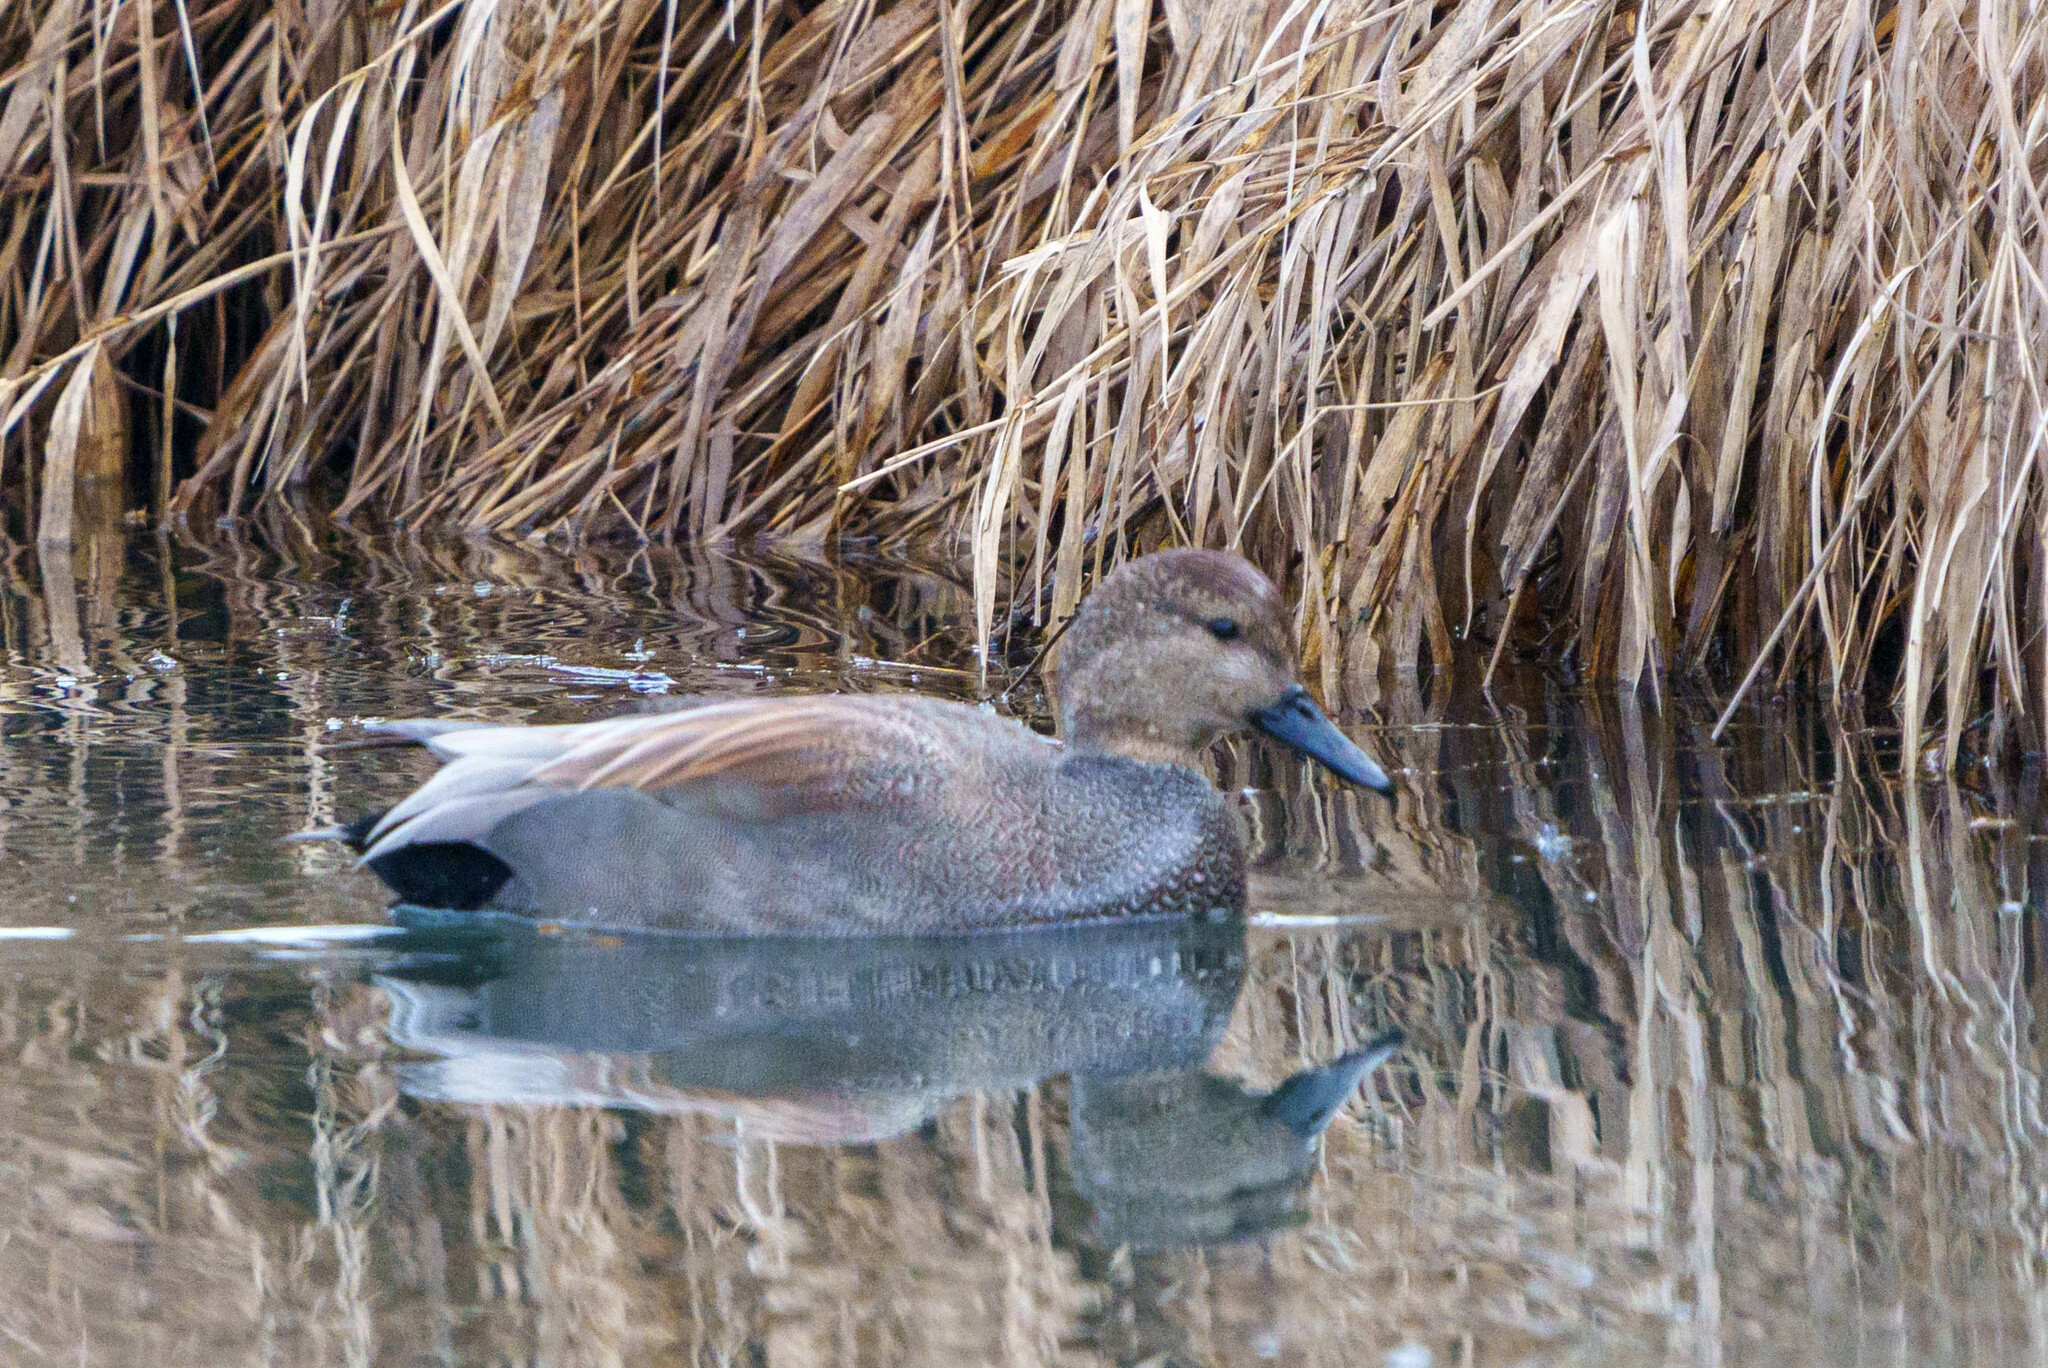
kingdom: Animalia
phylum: Chordata
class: Aves
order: Anseriformes
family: Anatidae
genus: Mareca
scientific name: Mareca strepera
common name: Gadwall
